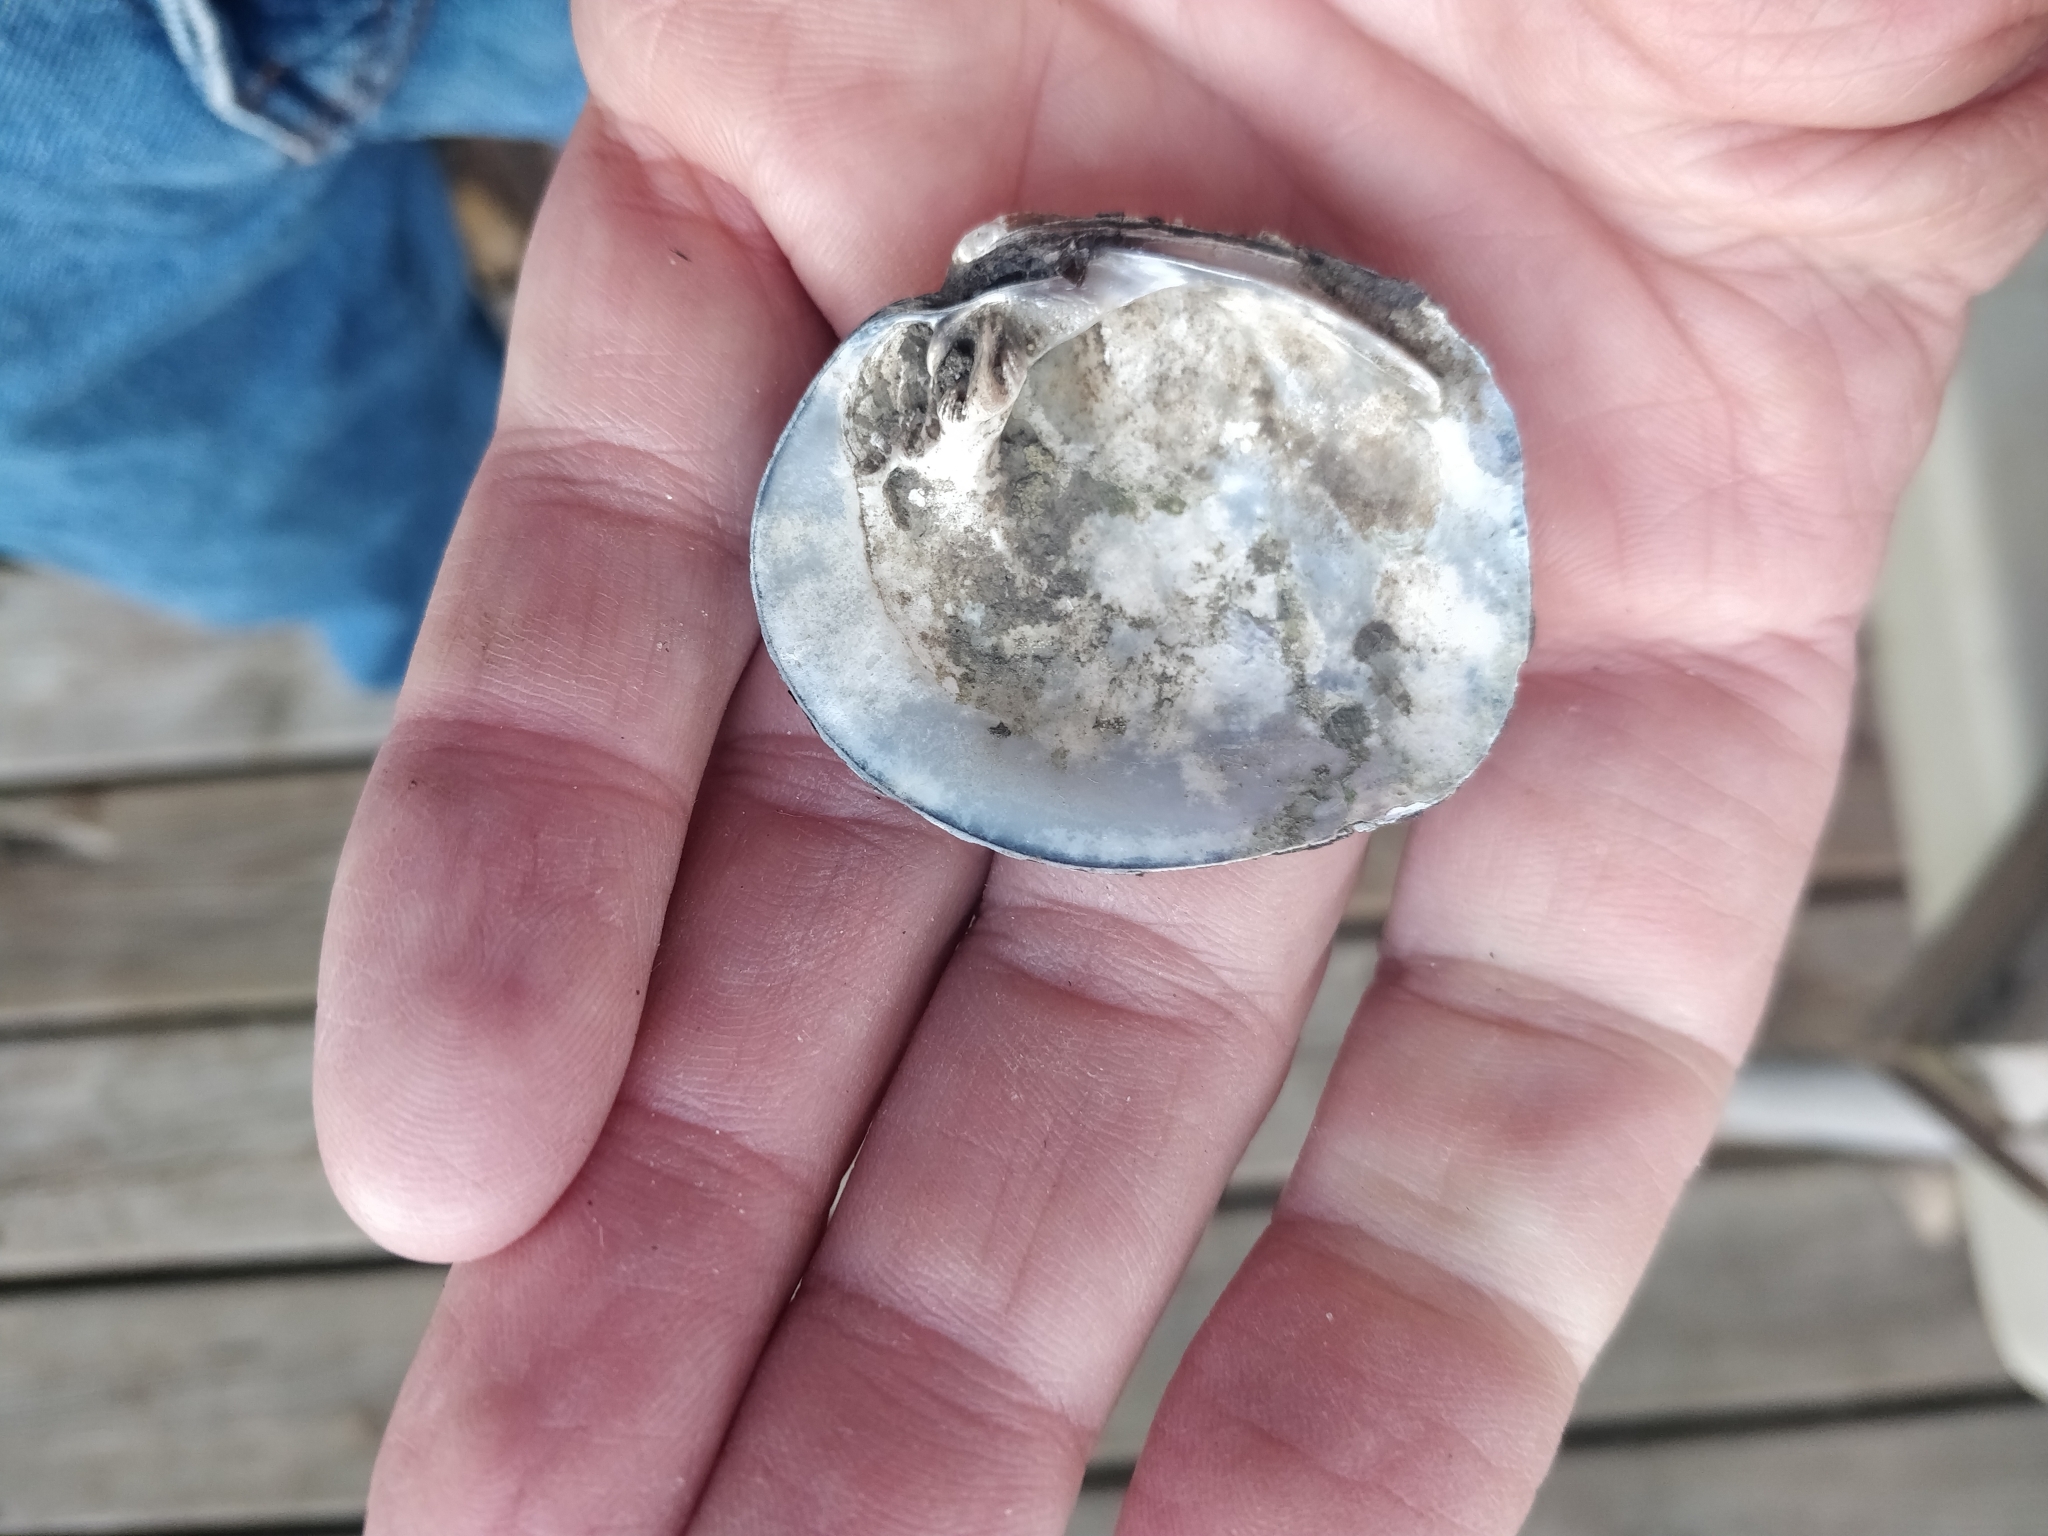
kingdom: Animalia
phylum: Mollusca
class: Bivalvia
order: Unionida
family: Unionidae
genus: Cyclonaias
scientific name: Cyclonaias pustulosa
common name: Pimpleback
